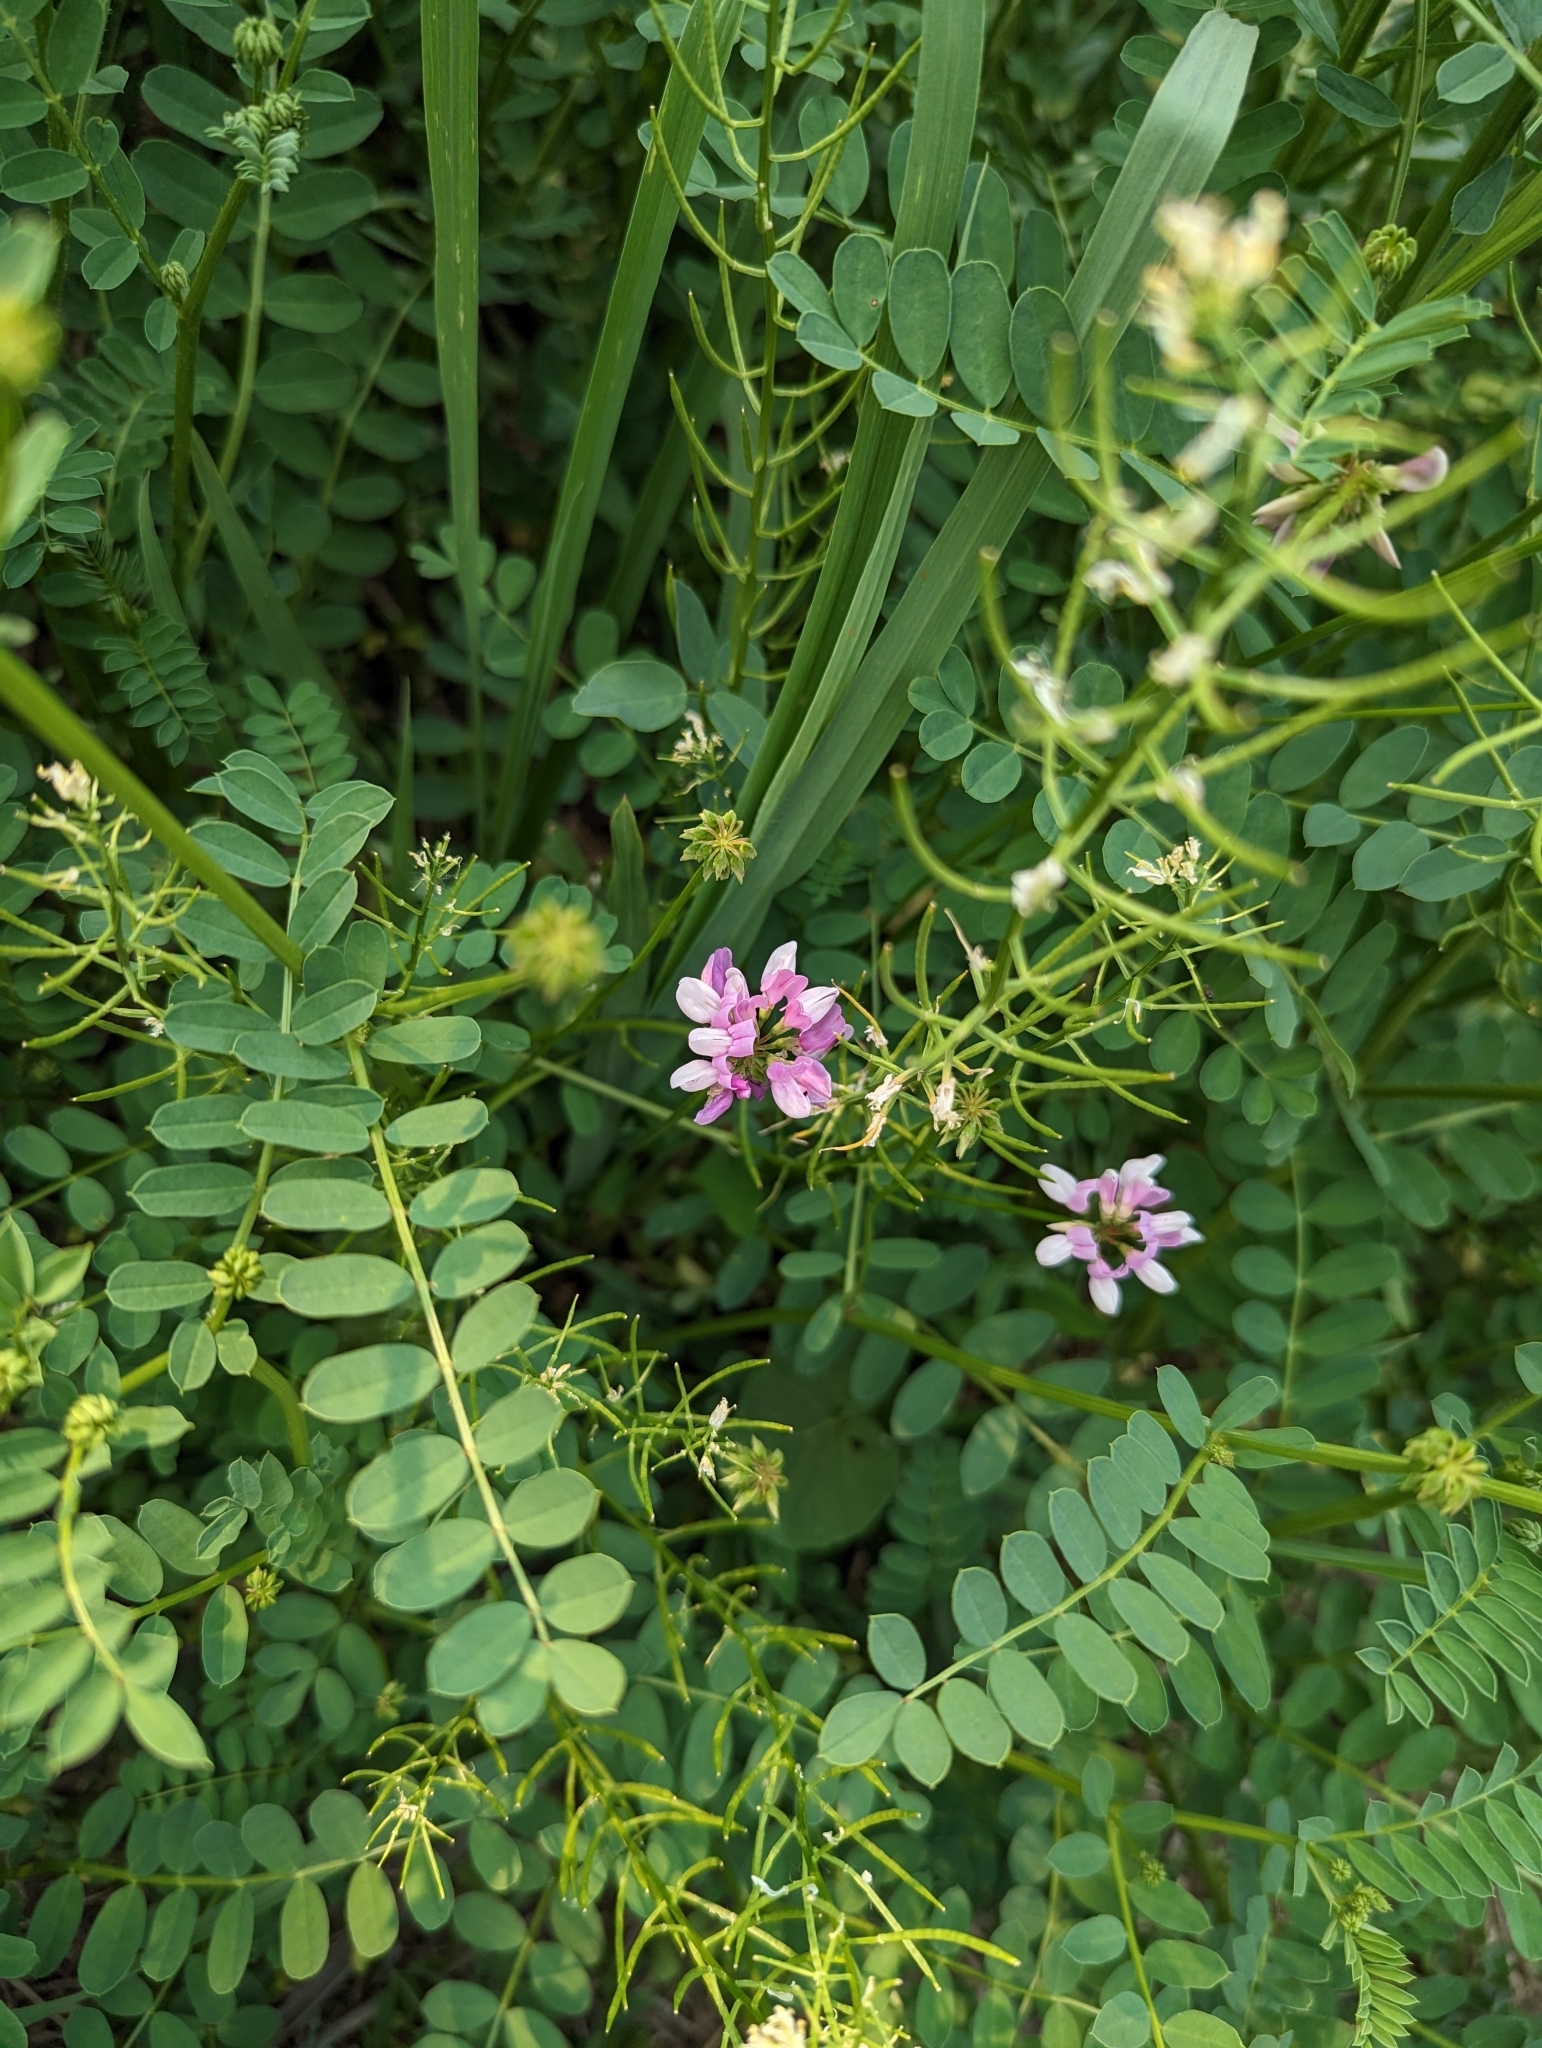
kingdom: Plantae
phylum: Tracheophyta
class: Magnoliopsida
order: Fabales
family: Fabaceae
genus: Coronilla
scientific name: Coronilla varia
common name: Crownvetch
